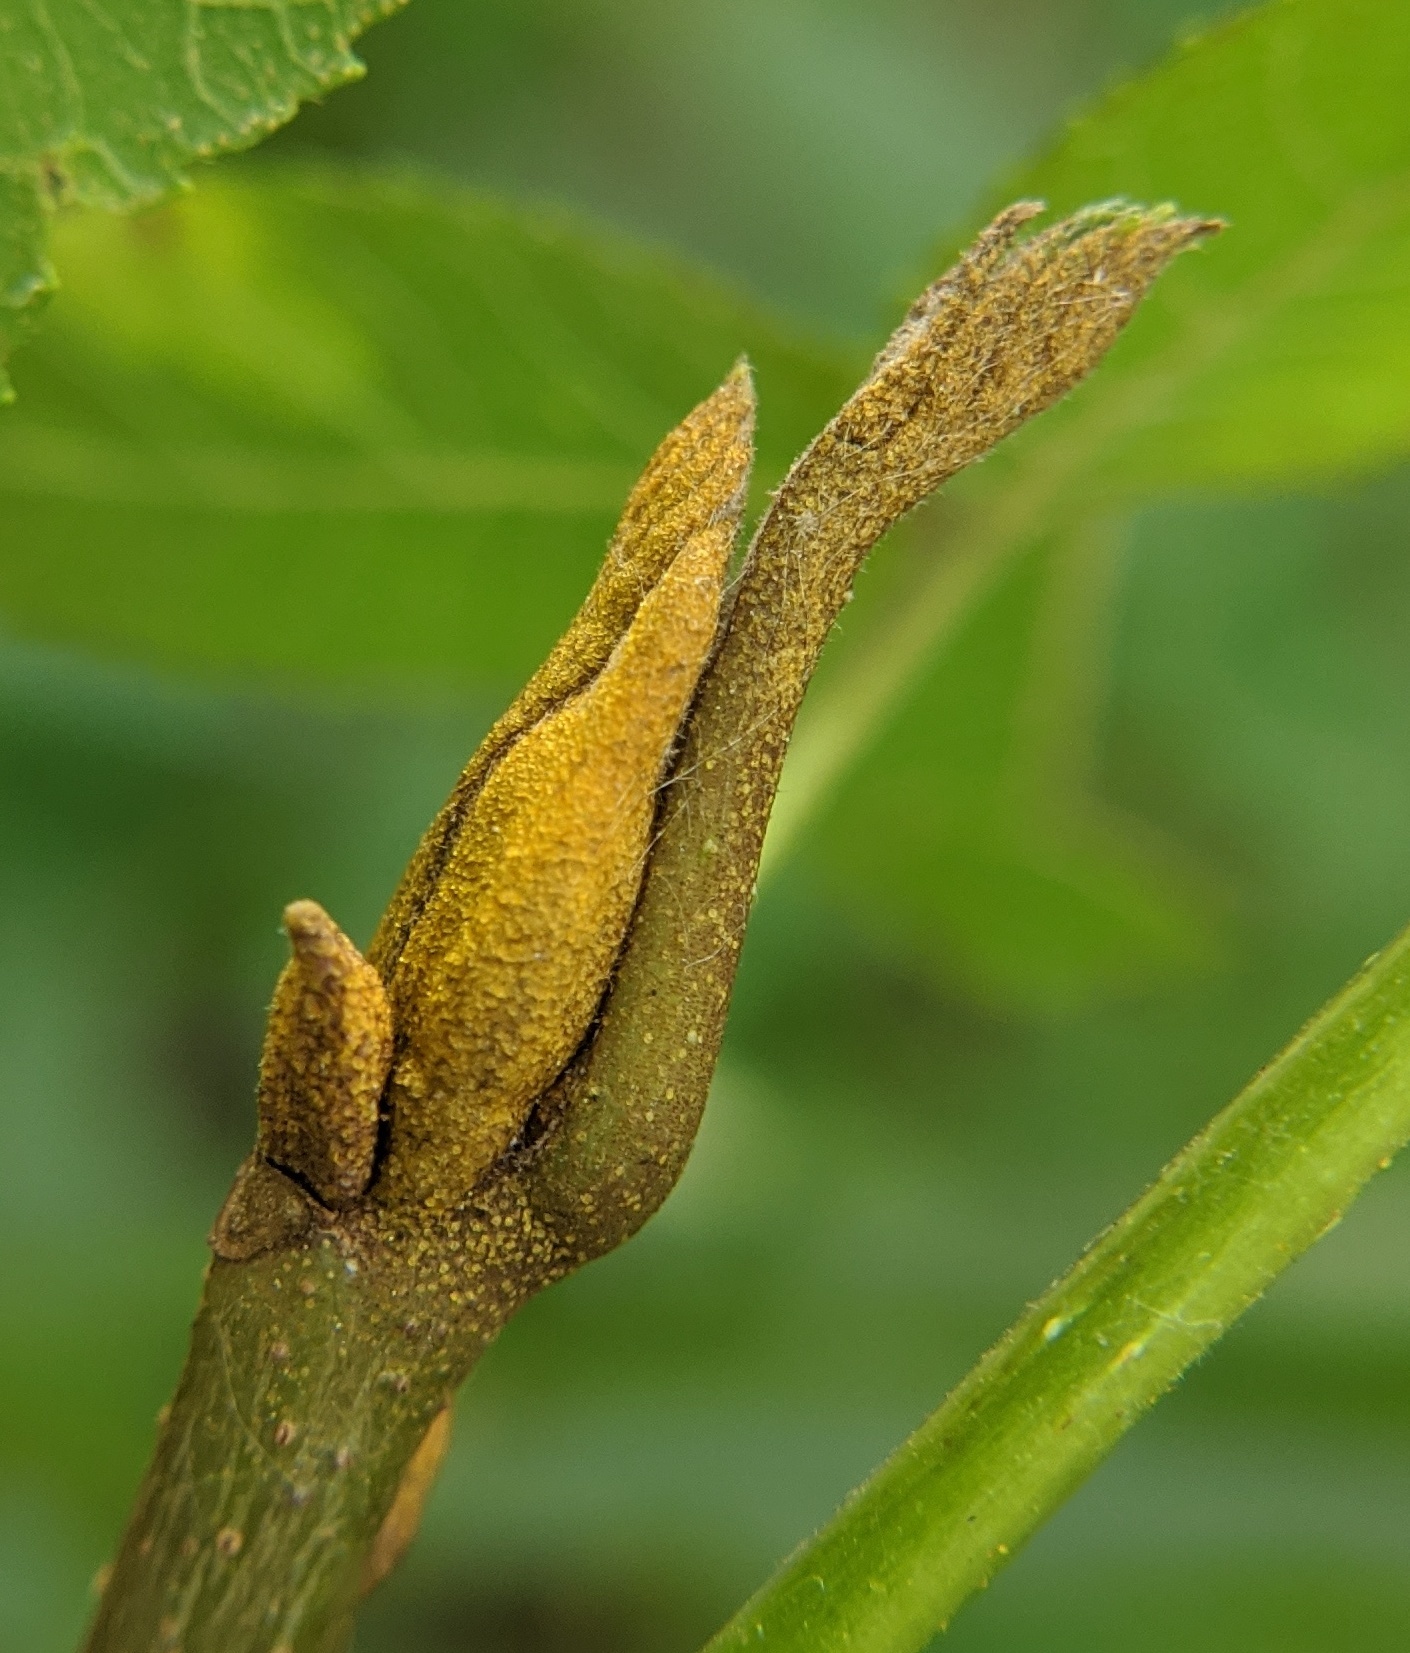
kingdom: Plantae
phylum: Tracheophyta
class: Magnoliopsida
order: Fagales
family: Juglandaceae
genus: Carya
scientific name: Carya cordiformis
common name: Bitternut hickory
